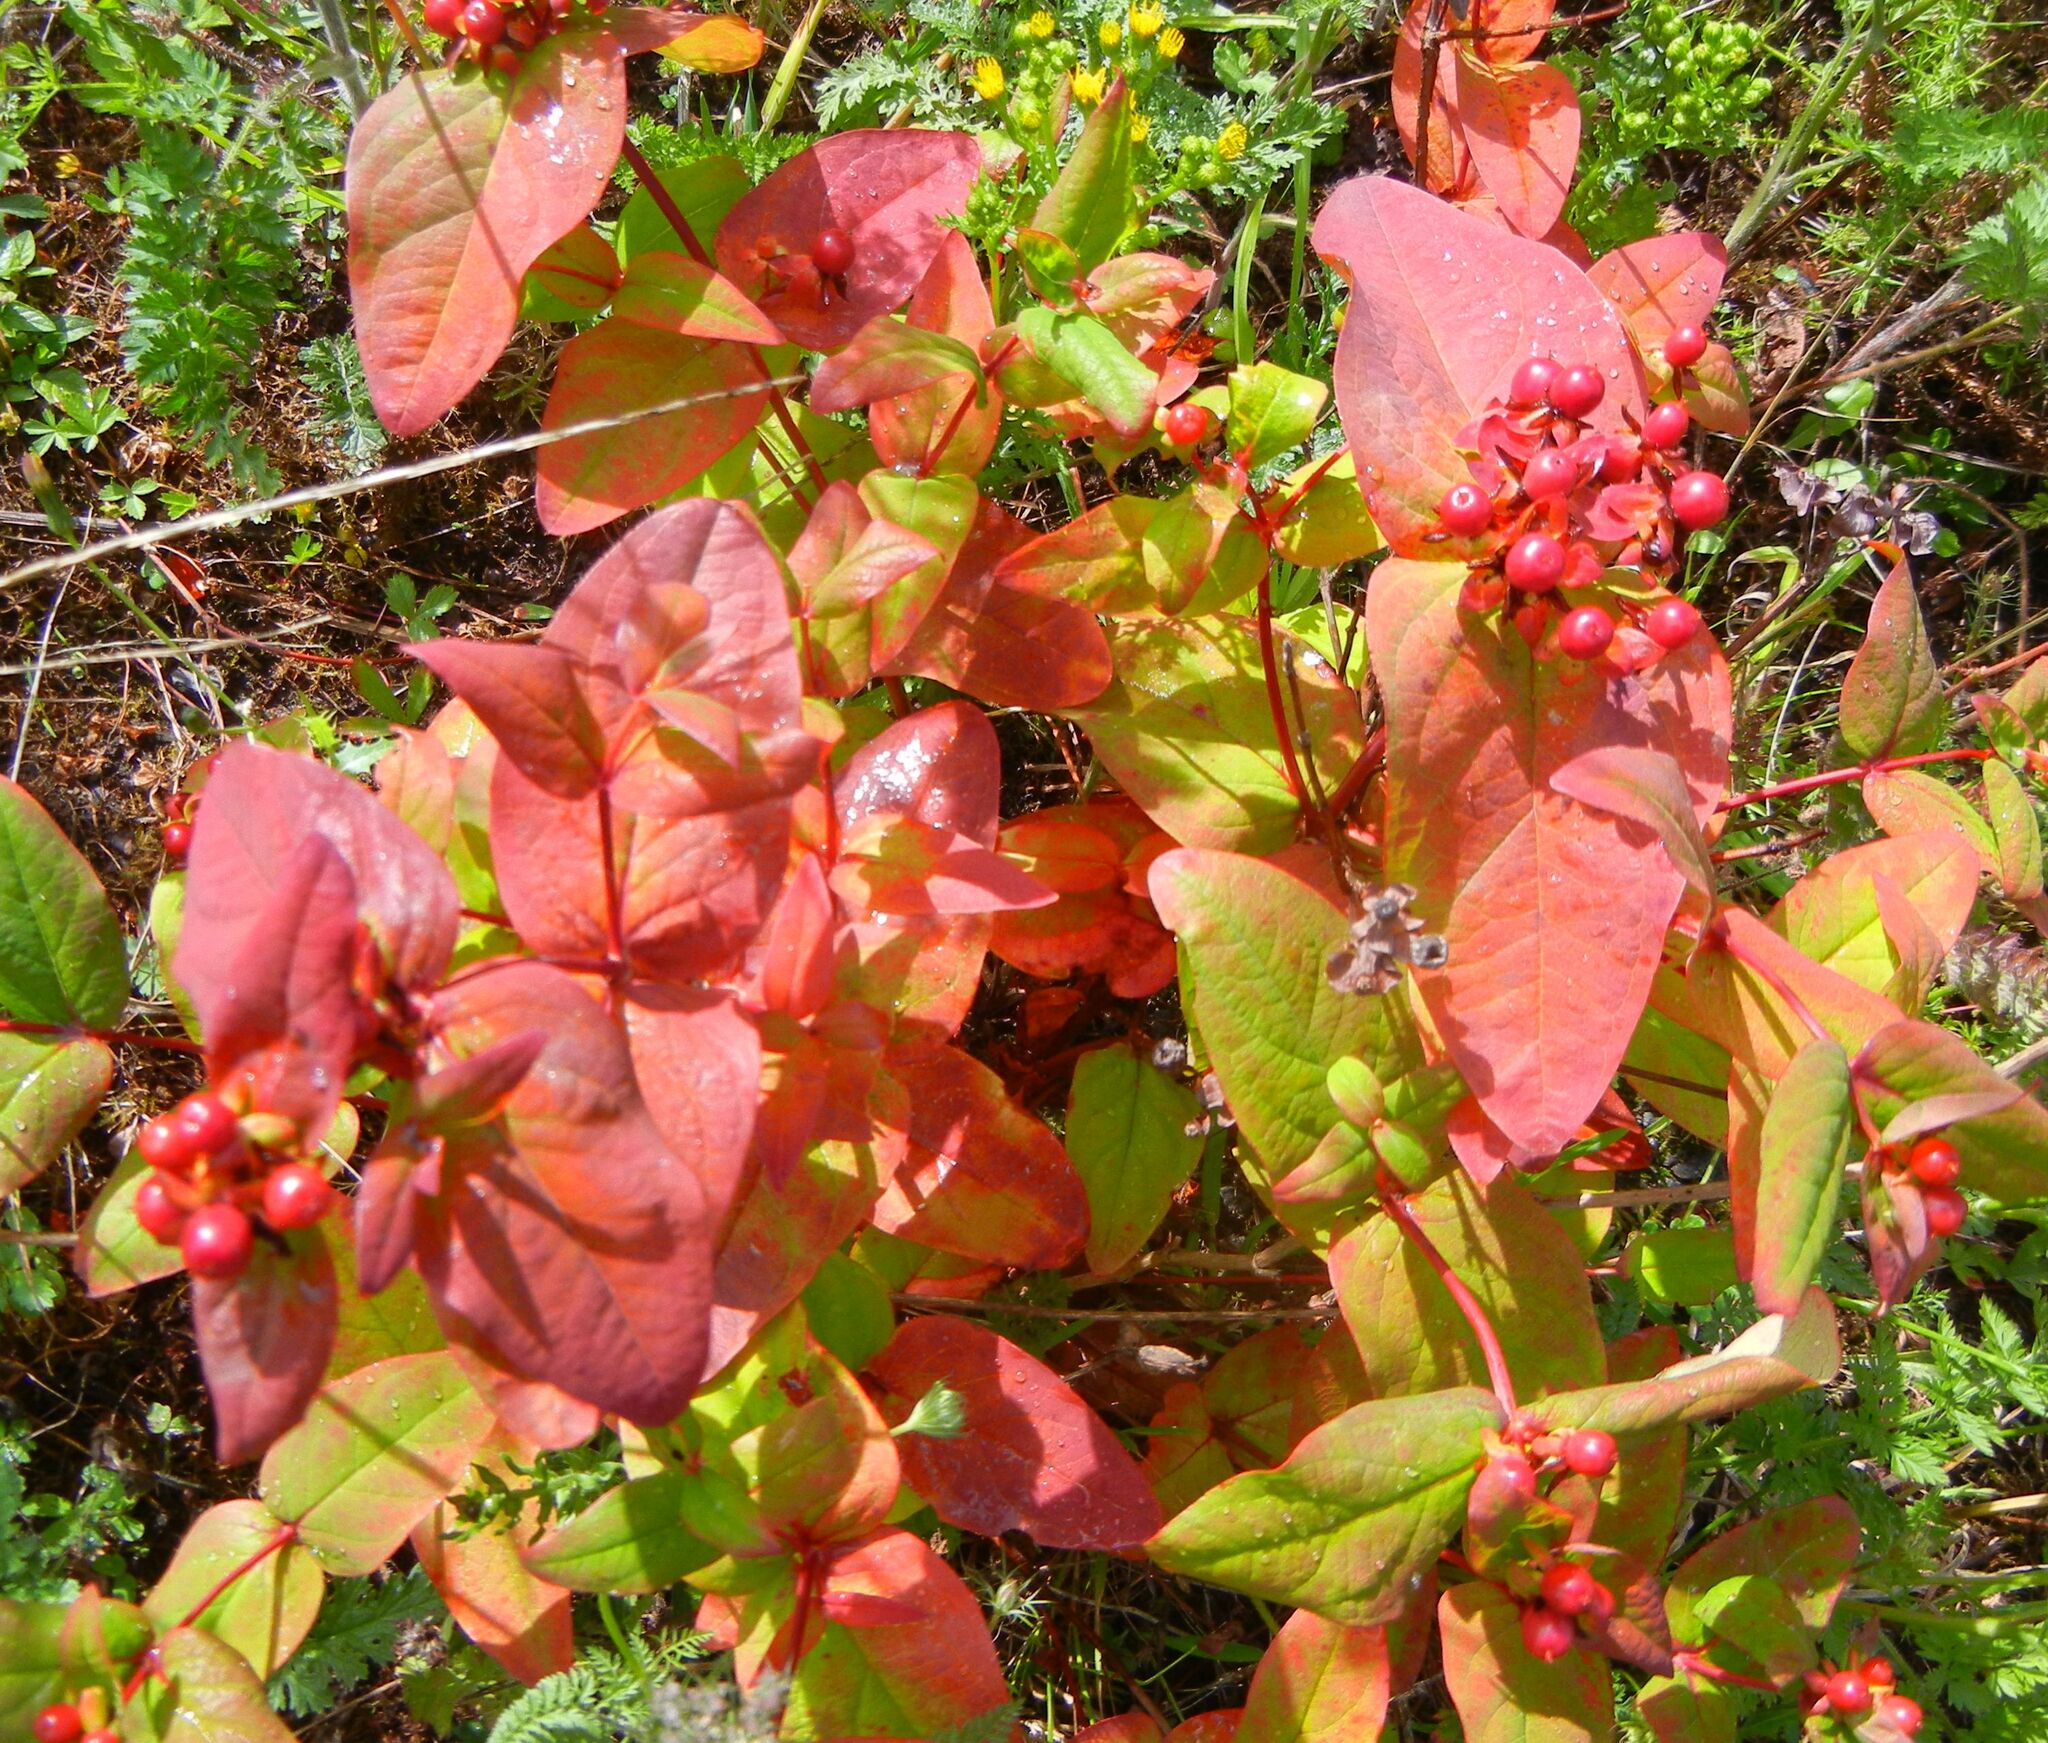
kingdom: Plantae
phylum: Tracheophyta
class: Magnoliopsida
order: Malpighiales
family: Hypericaceae
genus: Hypericum
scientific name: Hypericum androsaemum
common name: Sweet-amber
